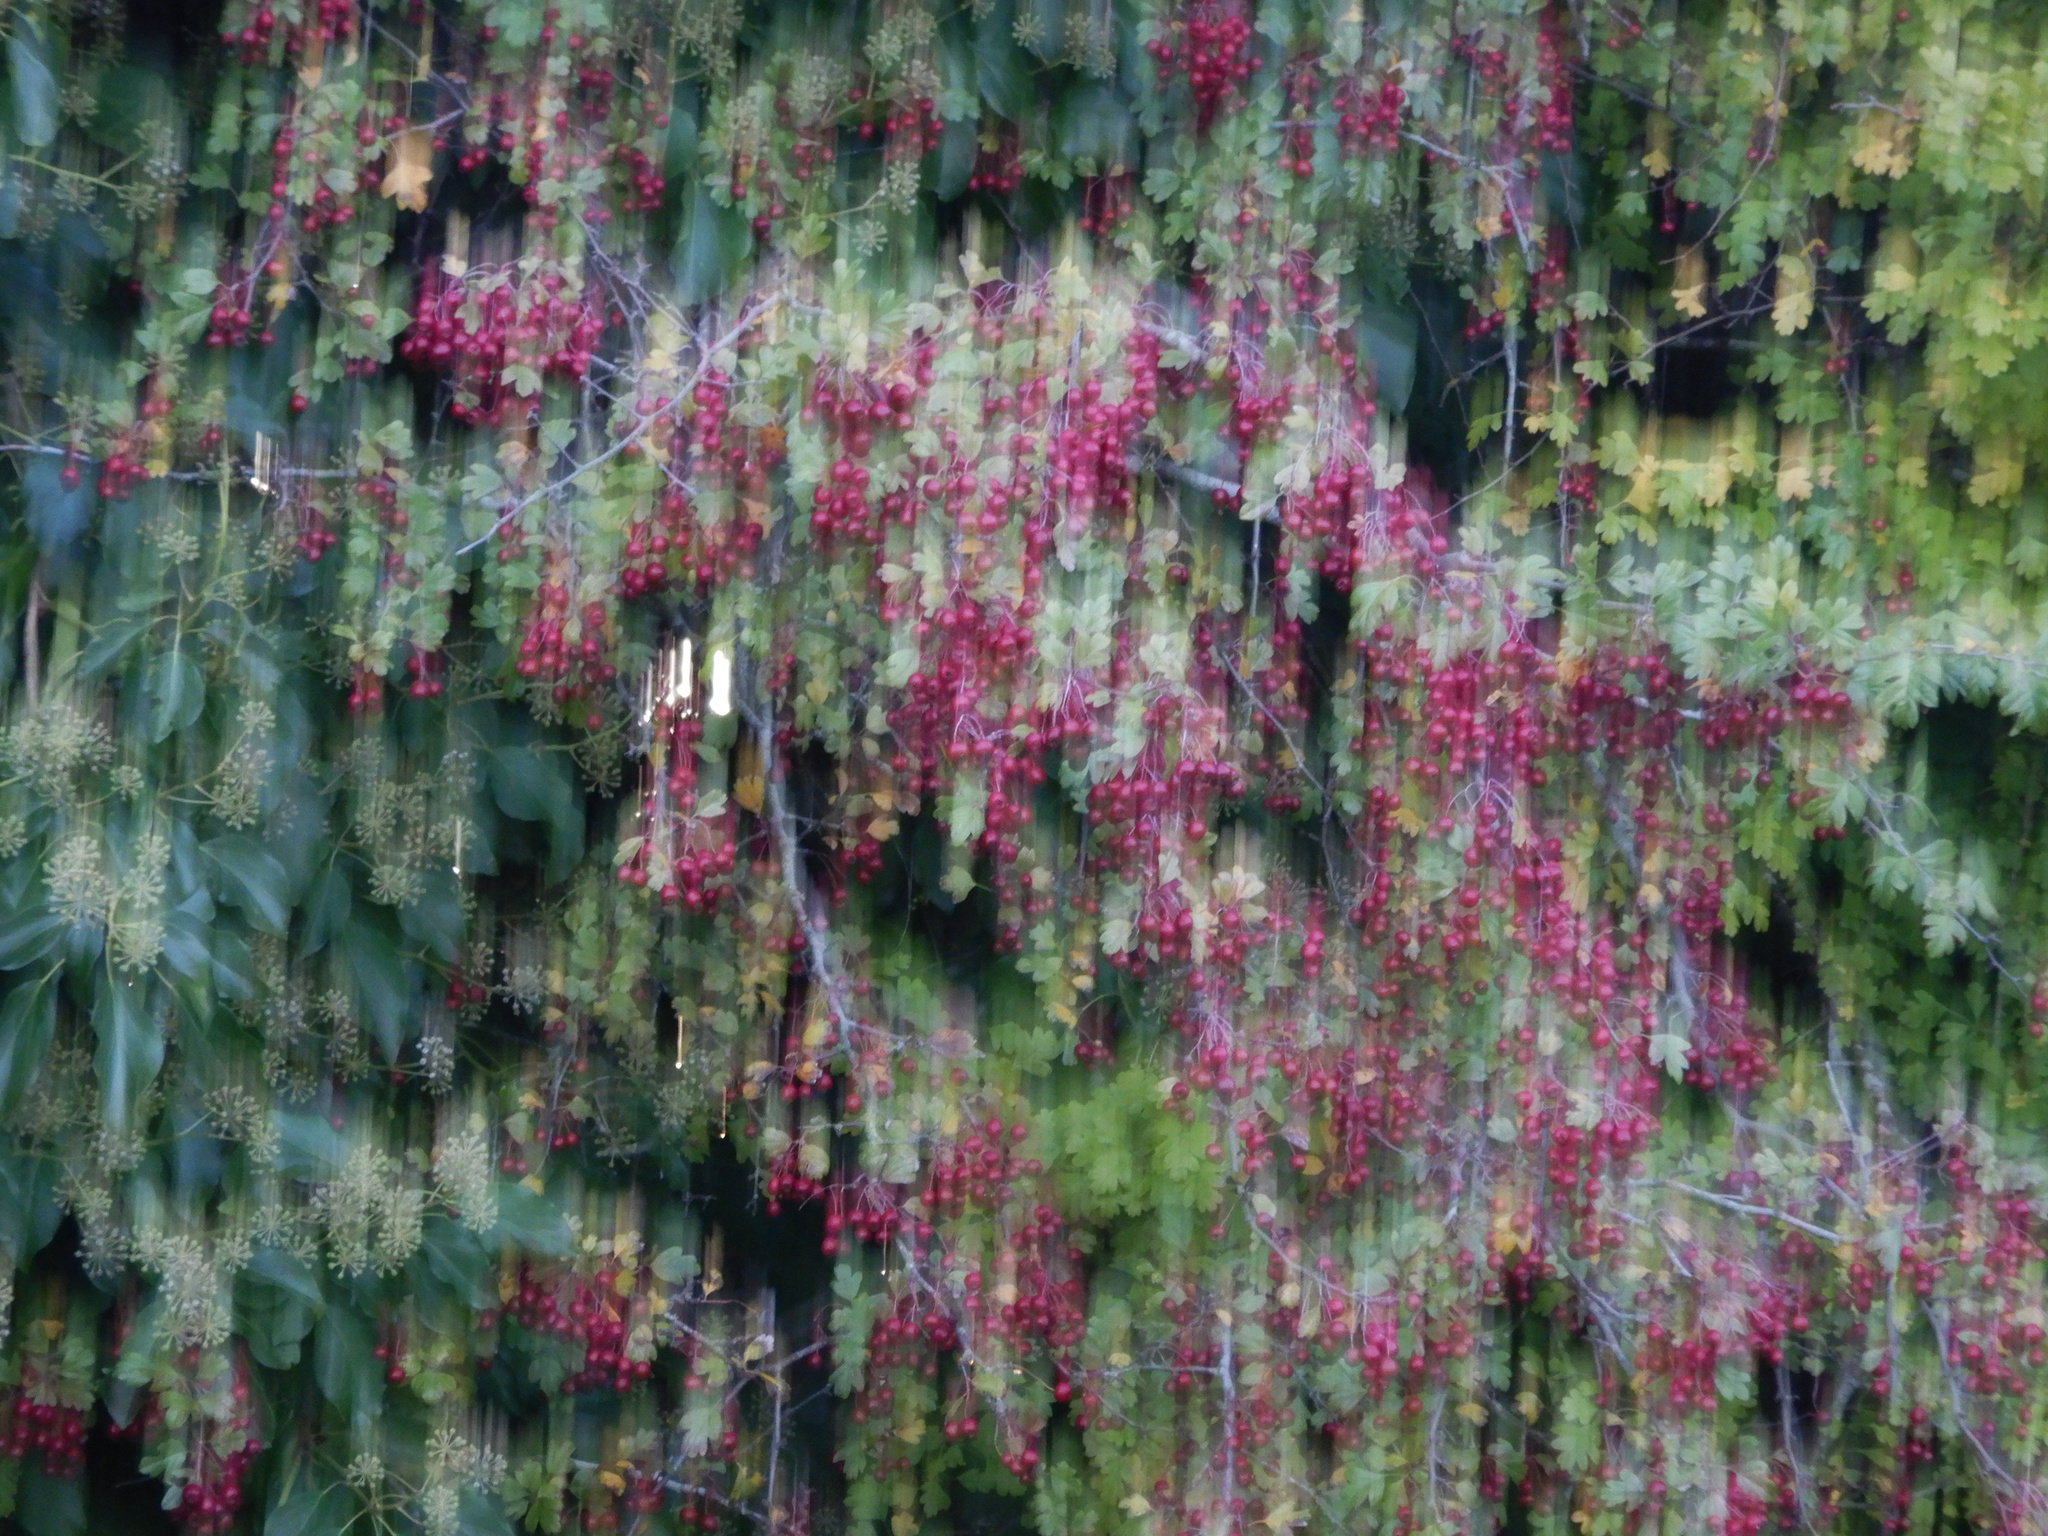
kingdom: Plantae
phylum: Tracheophyta
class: Magnoliopsida
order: Rosales
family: Rosaceae
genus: Crataegus
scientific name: Crataegus monogyna
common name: Hawthorn
